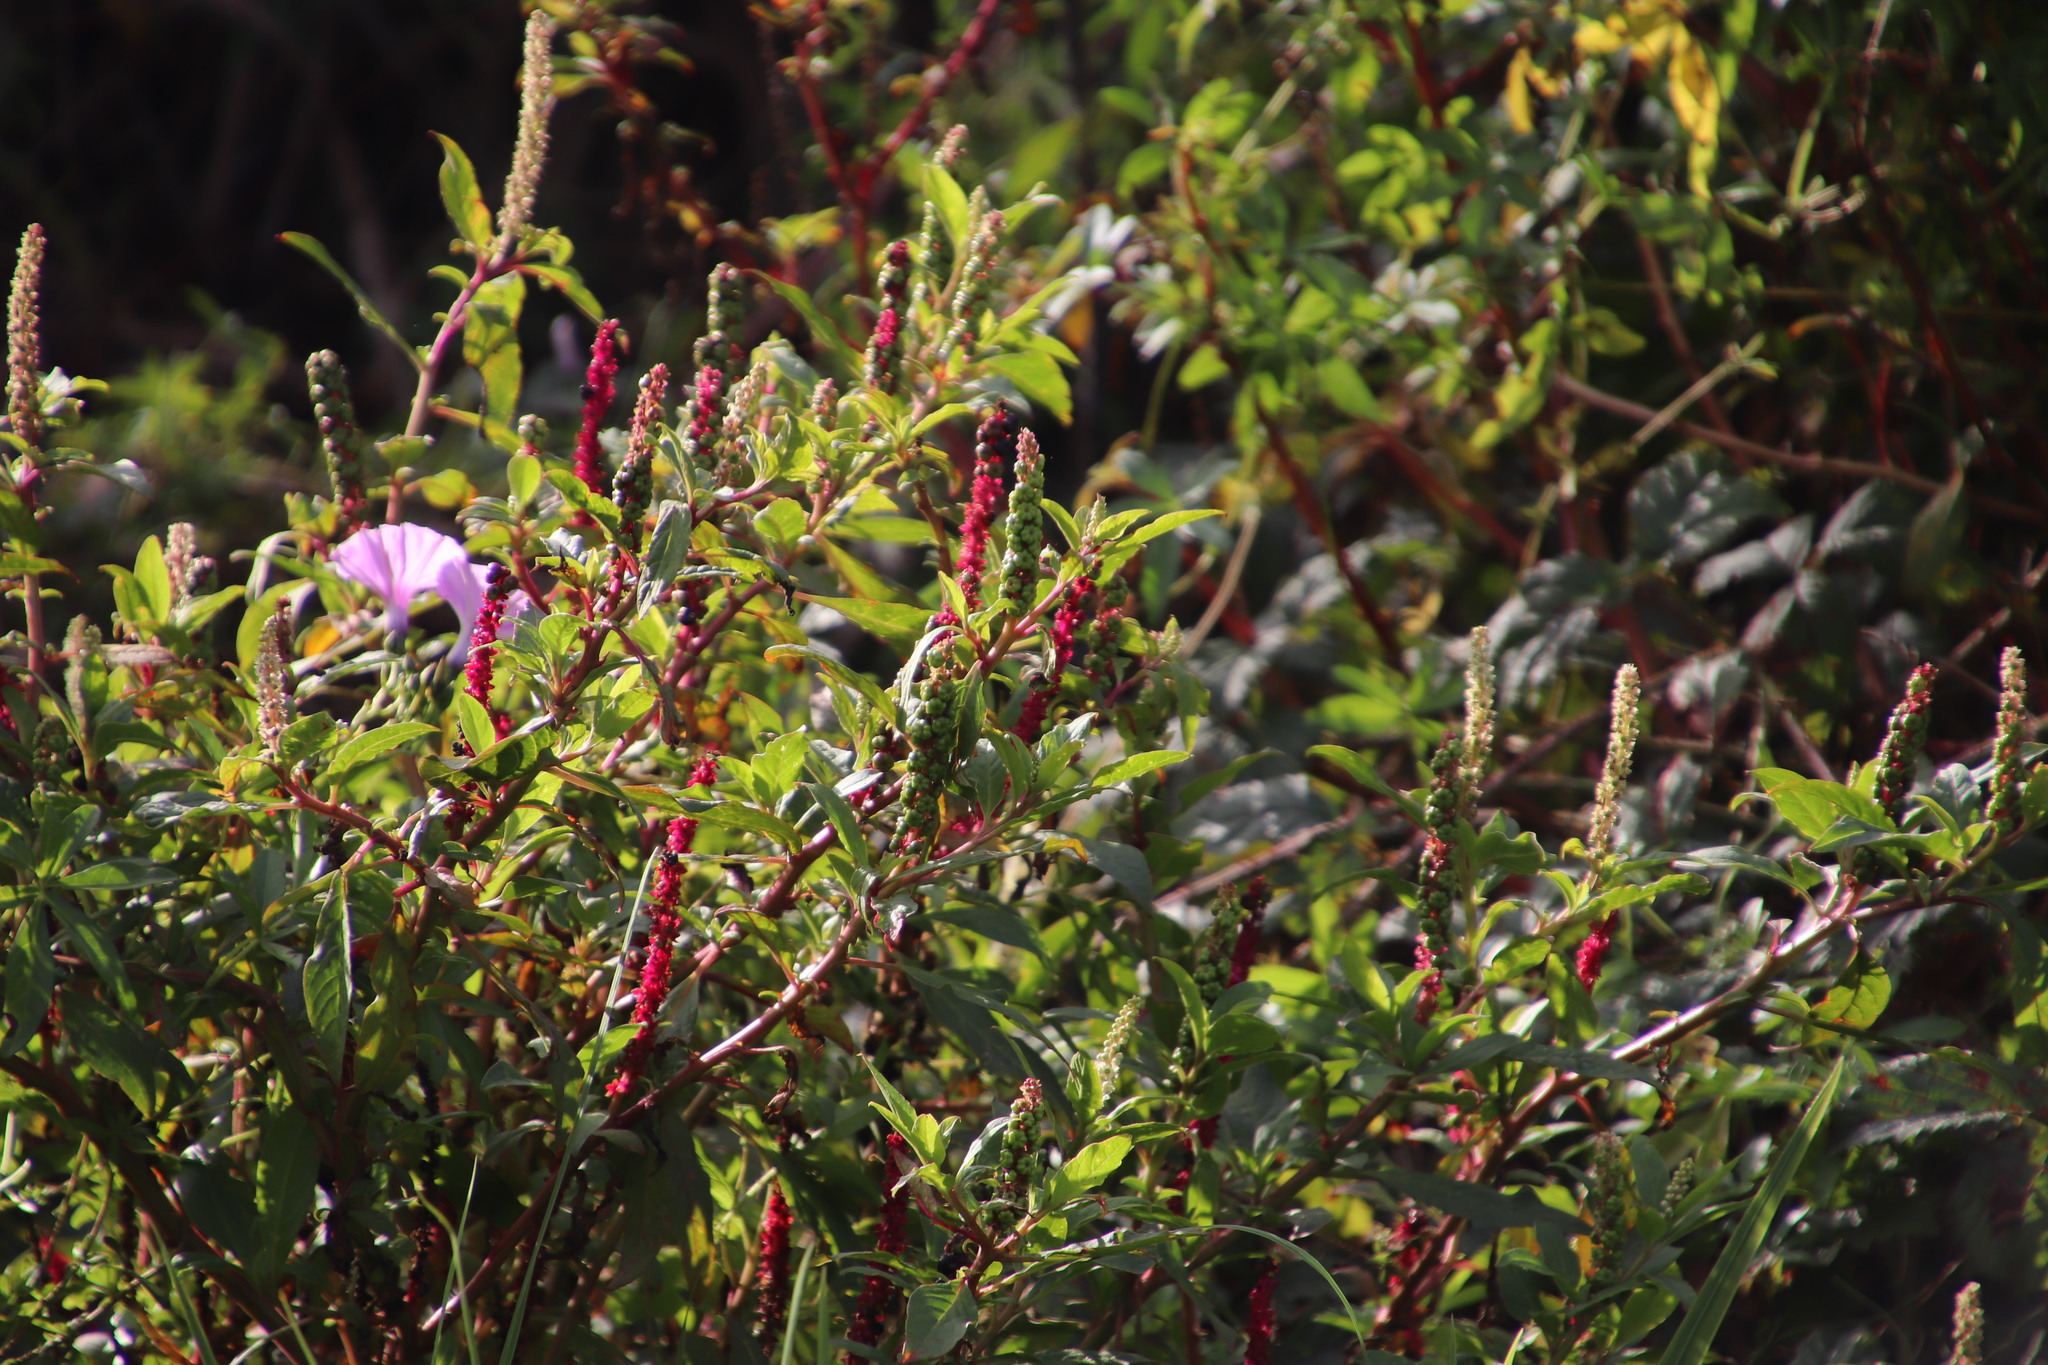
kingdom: Plantae
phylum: Tracheophyta
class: Magnoliopsida
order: Caryophyllales
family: Phytolaccaceae
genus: Phytolacca
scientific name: Phytolacca icosandra
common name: Button pokeweed
